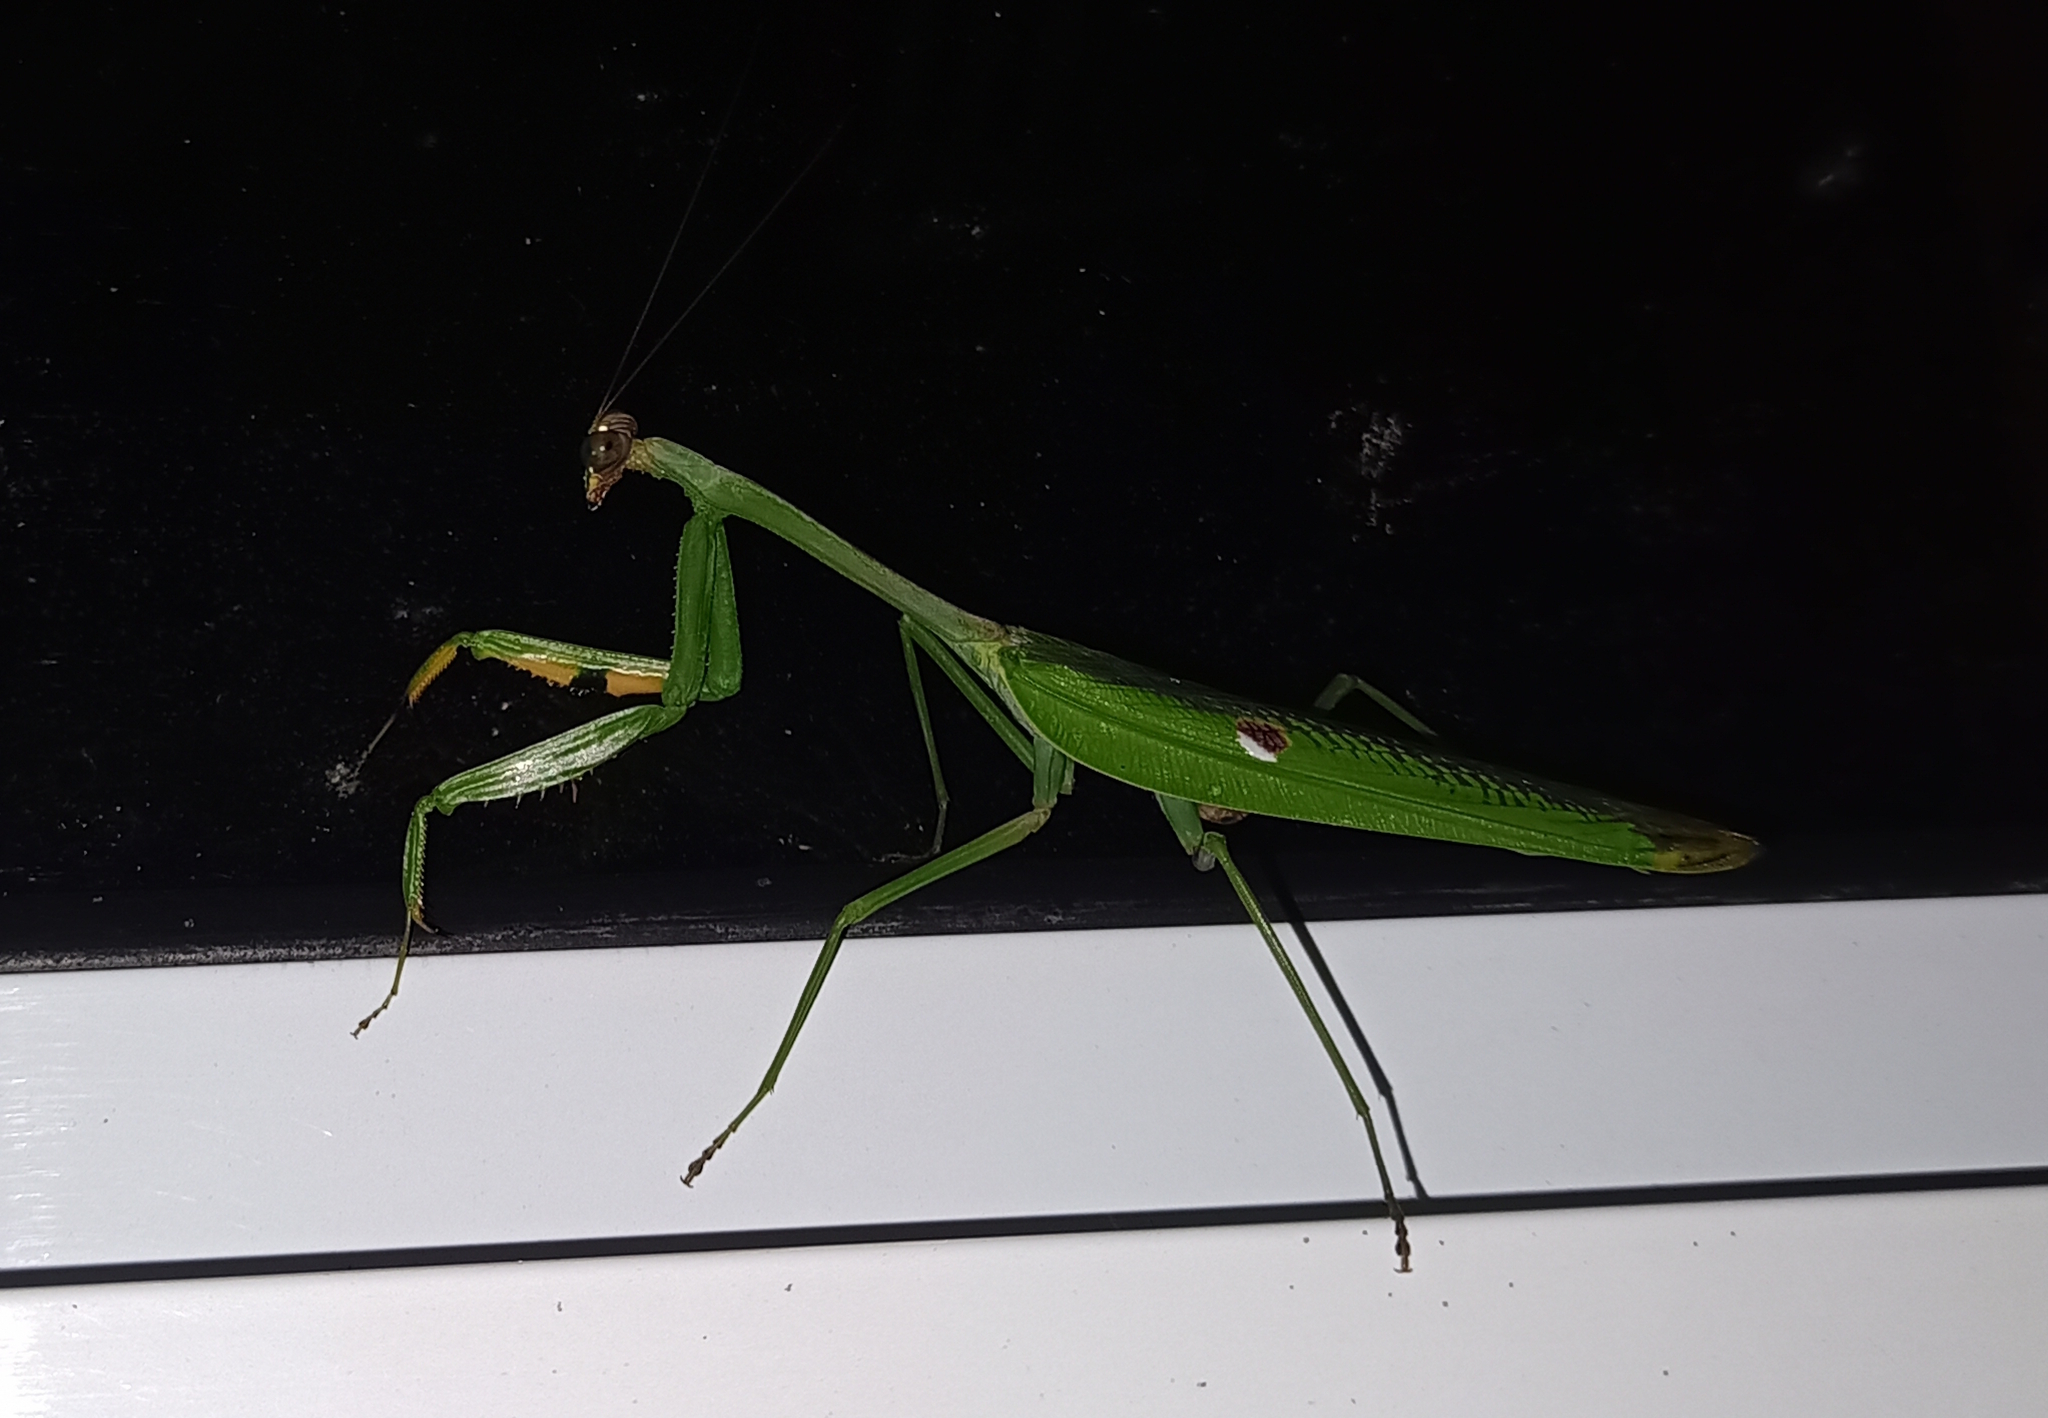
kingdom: Animalia
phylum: Arthropoda
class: Insecta
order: Mantodea
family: Mantidae
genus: Stagmatoptera
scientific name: Stagmatoptera praecaria
